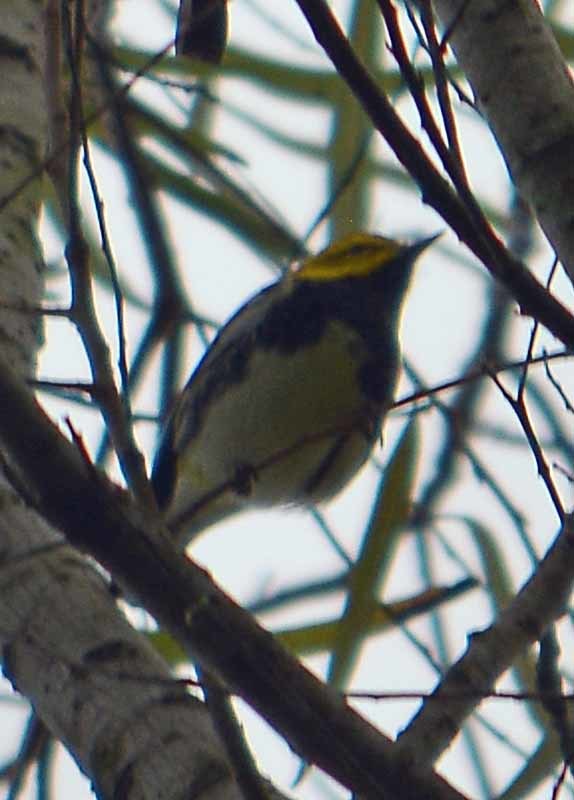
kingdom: Animalia
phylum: Chordata
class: Aves
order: Passeriformes
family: Parulidae
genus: Setophaga
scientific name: Setophaga virens
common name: Black-throated green warbler
